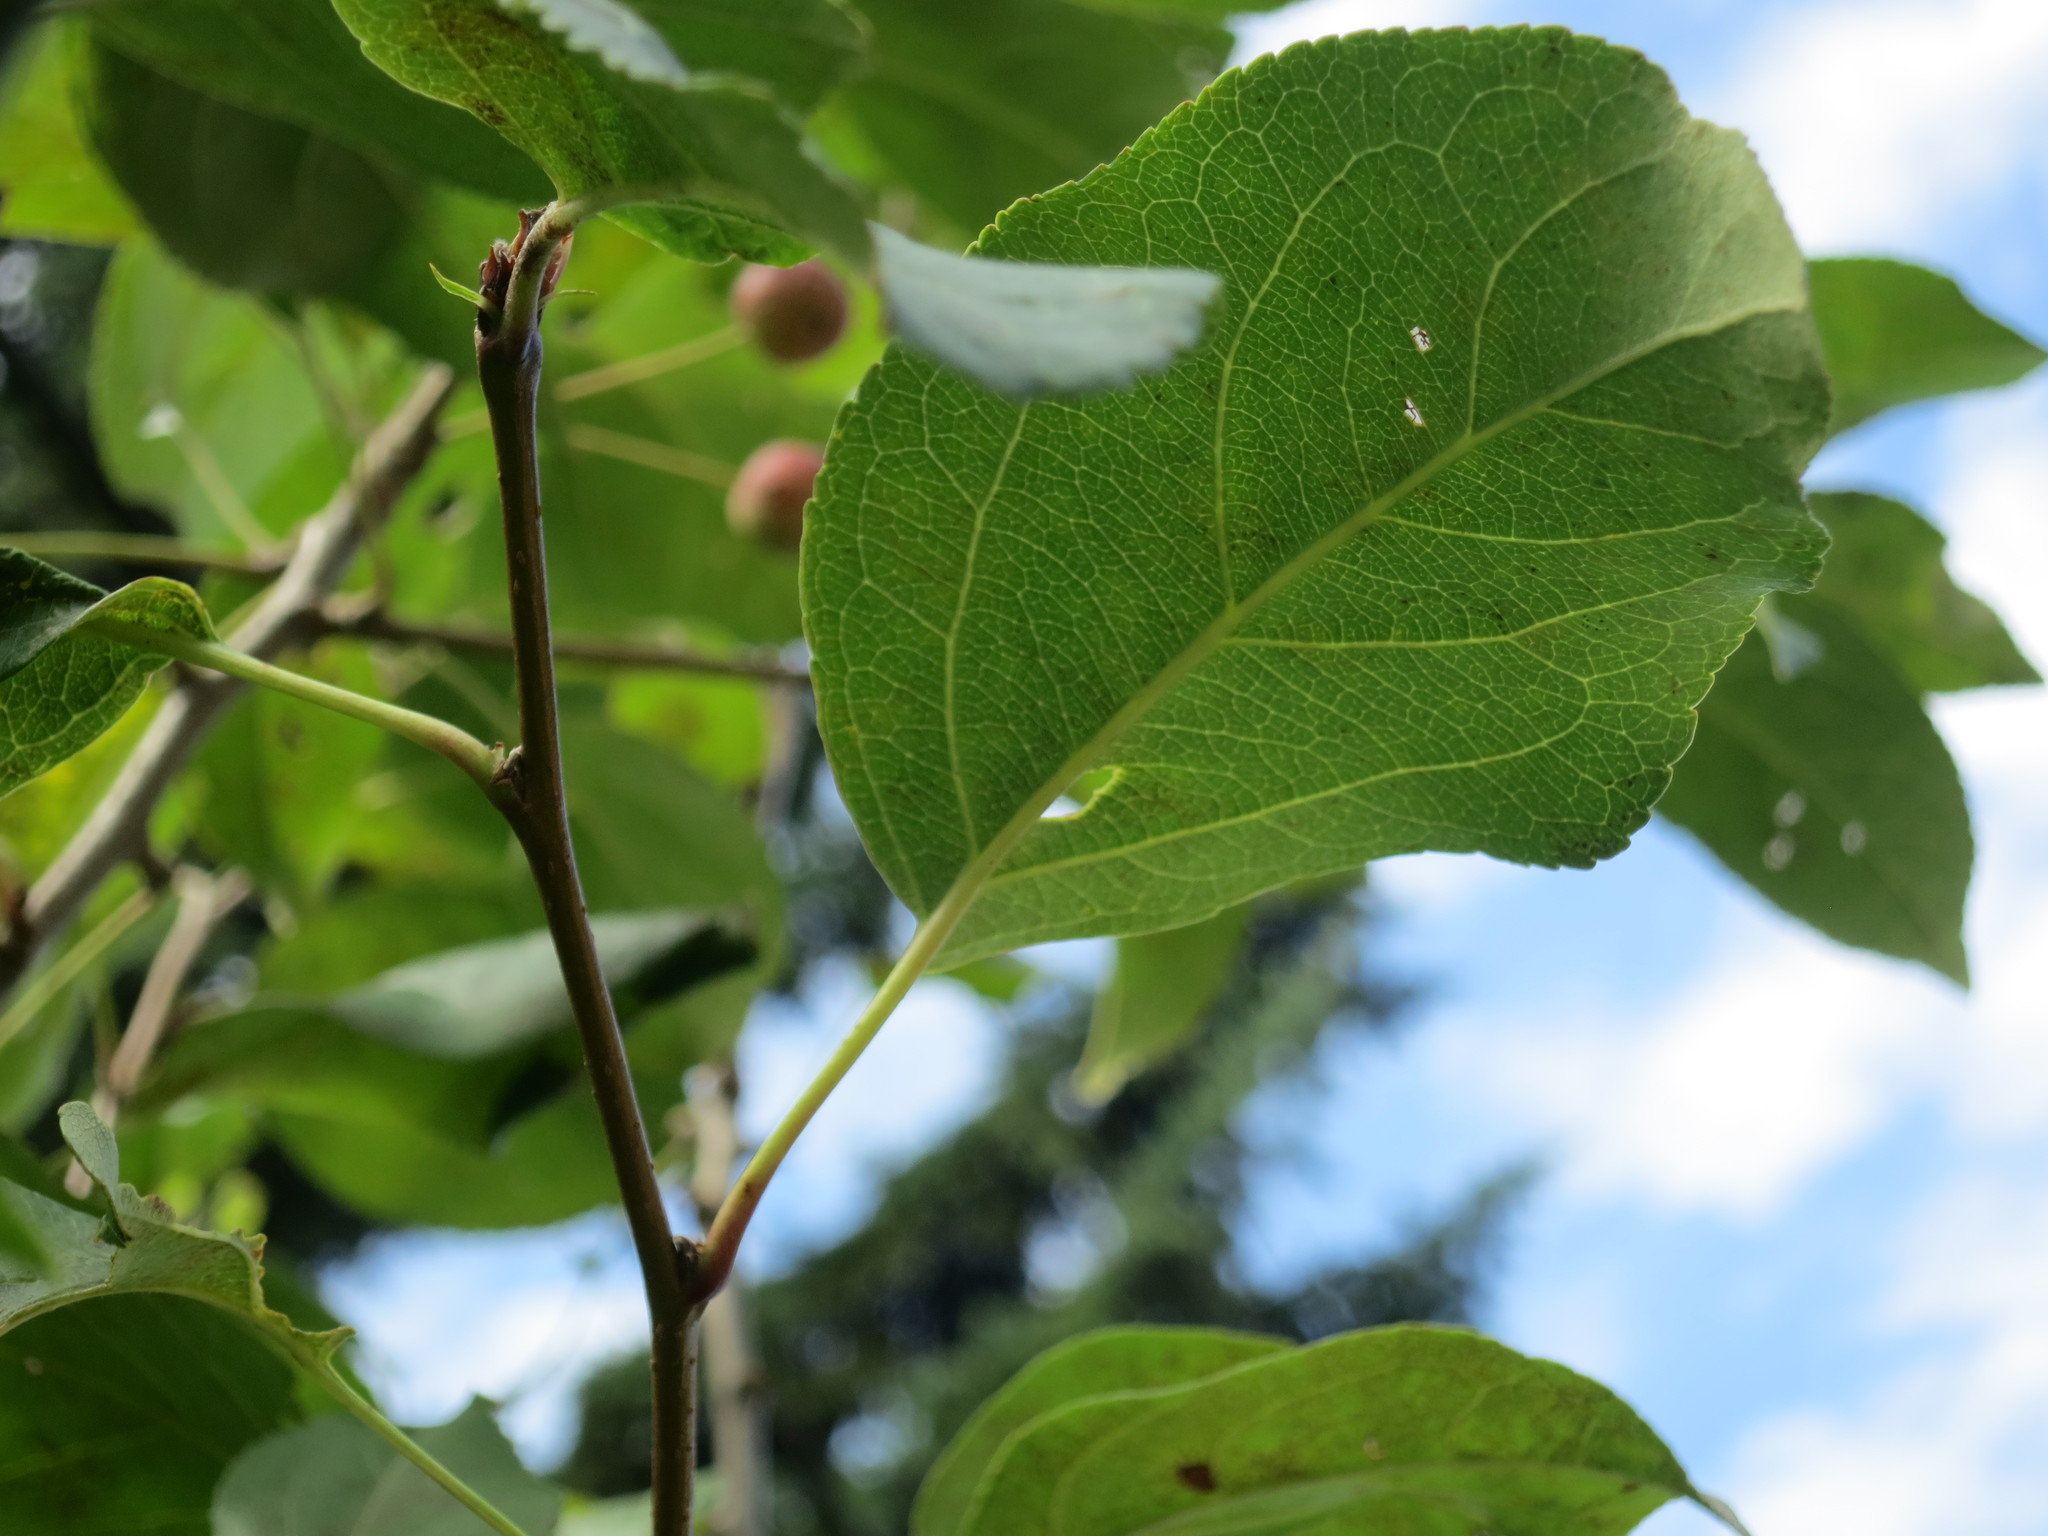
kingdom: Plantae
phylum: Tracheophyta
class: Magnoliopsida
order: Rosales
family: Rosaceae
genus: Malus
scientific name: Malus baccata
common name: Siberian crab
